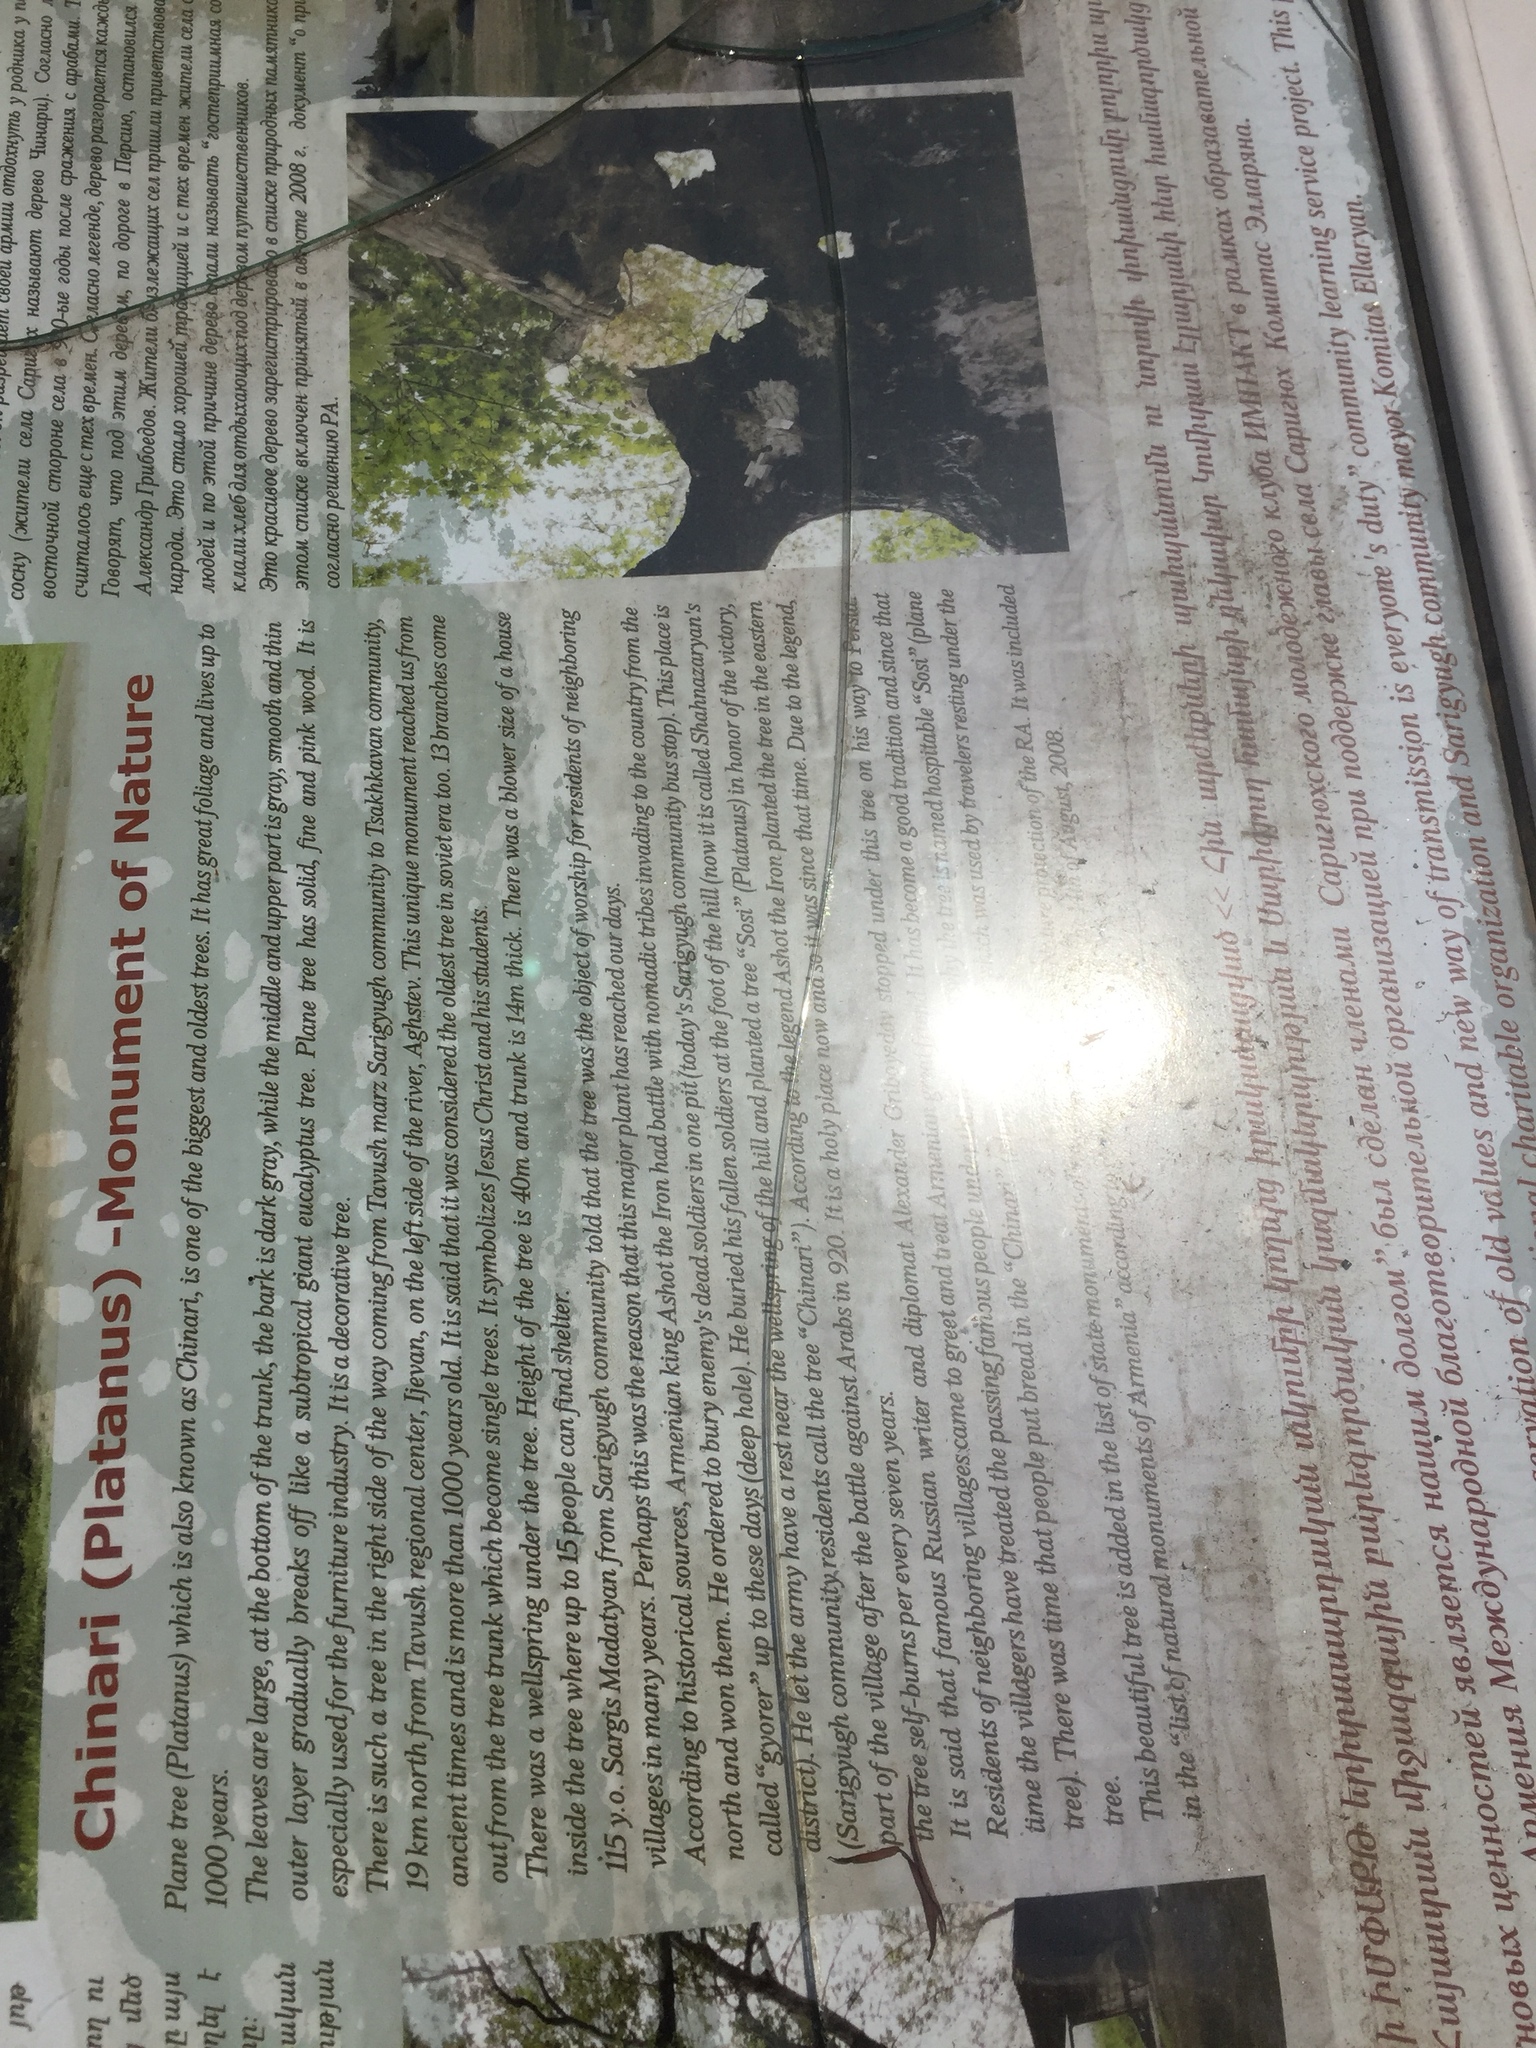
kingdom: Plantae
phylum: Tracheophyta
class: Magnoliopsida
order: Malpighiales
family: Euphorbiaceae
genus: Euphorbia
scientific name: Euphorbia maculata
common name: Spotted spurge
